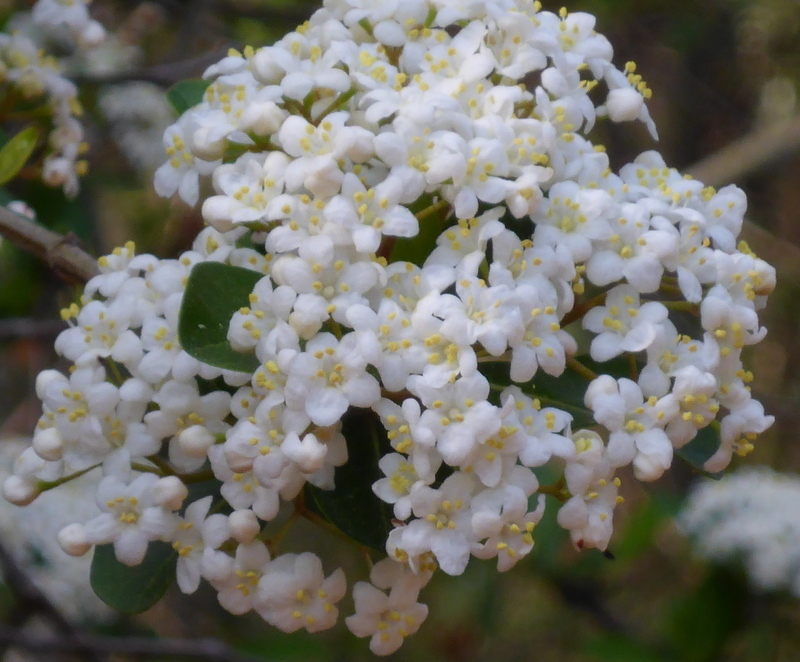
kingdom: Plantae
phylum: Tracheophyta
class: Magnoliopsida
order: Dipsacales
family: Viburnaceae
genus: Viburnum
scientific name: Viburnum obovatum
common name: Walter's viburnum
